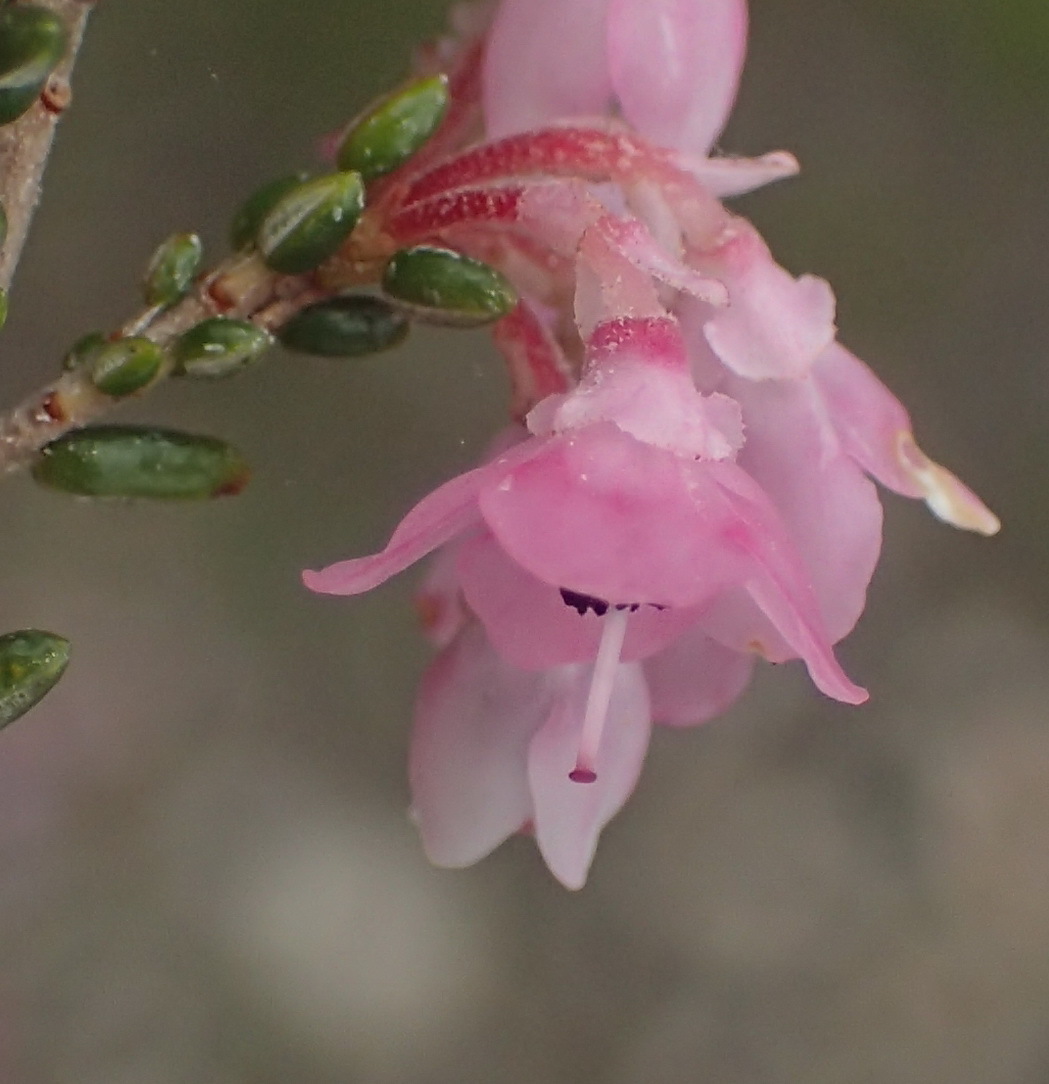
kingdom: Plantae
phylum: Tracheophyta
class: Magnoliopsida
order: Ericales
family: Ericaceae
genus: Erica
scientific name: Erica melanthera
